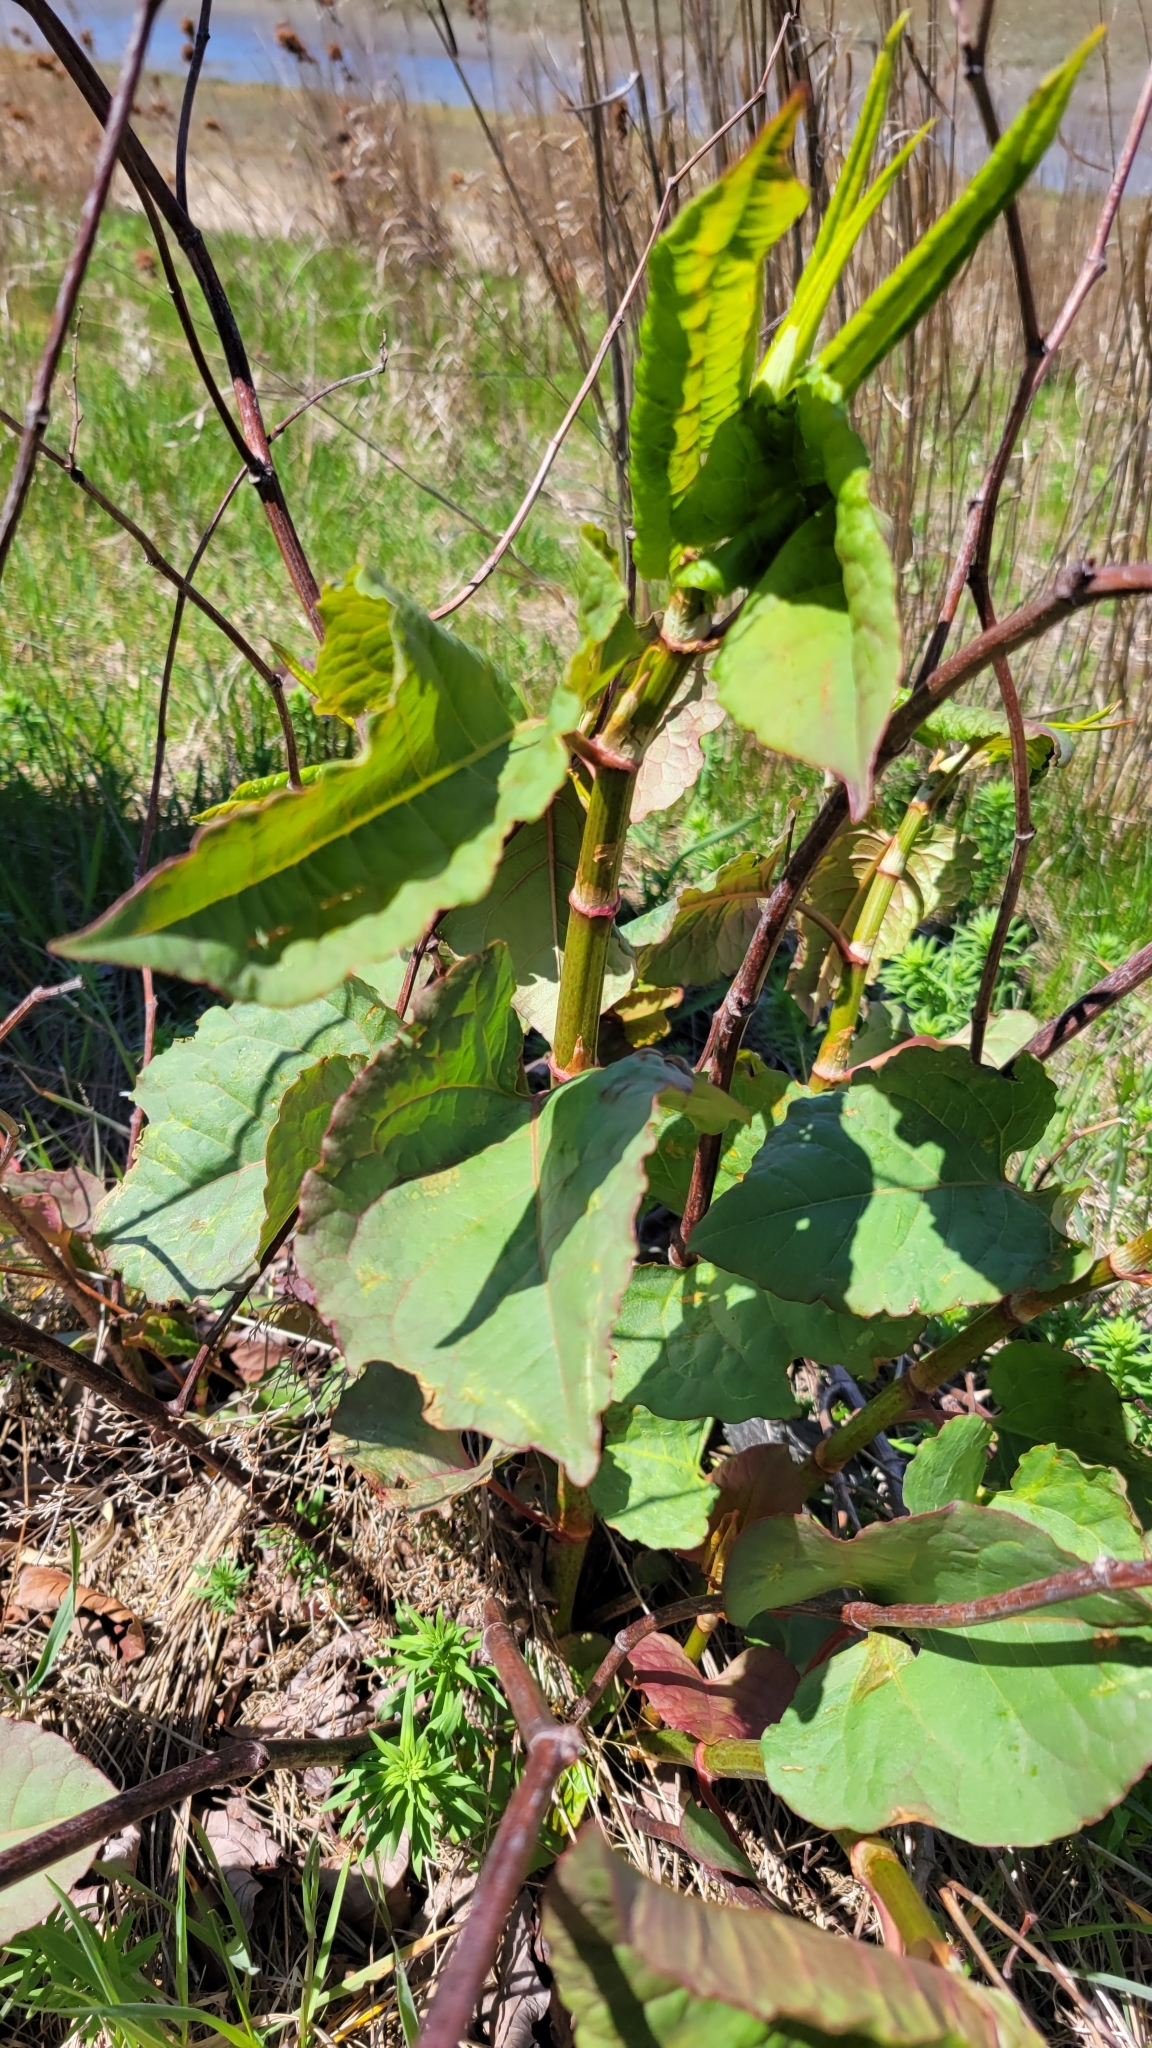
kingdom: Plantae
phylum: Tracheophyta
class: Magnoliopsida
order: Caryophyllales
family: Polygonaceae
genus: Reynoutria
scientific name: Reynoutria japonica
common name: Japanese knotweed
